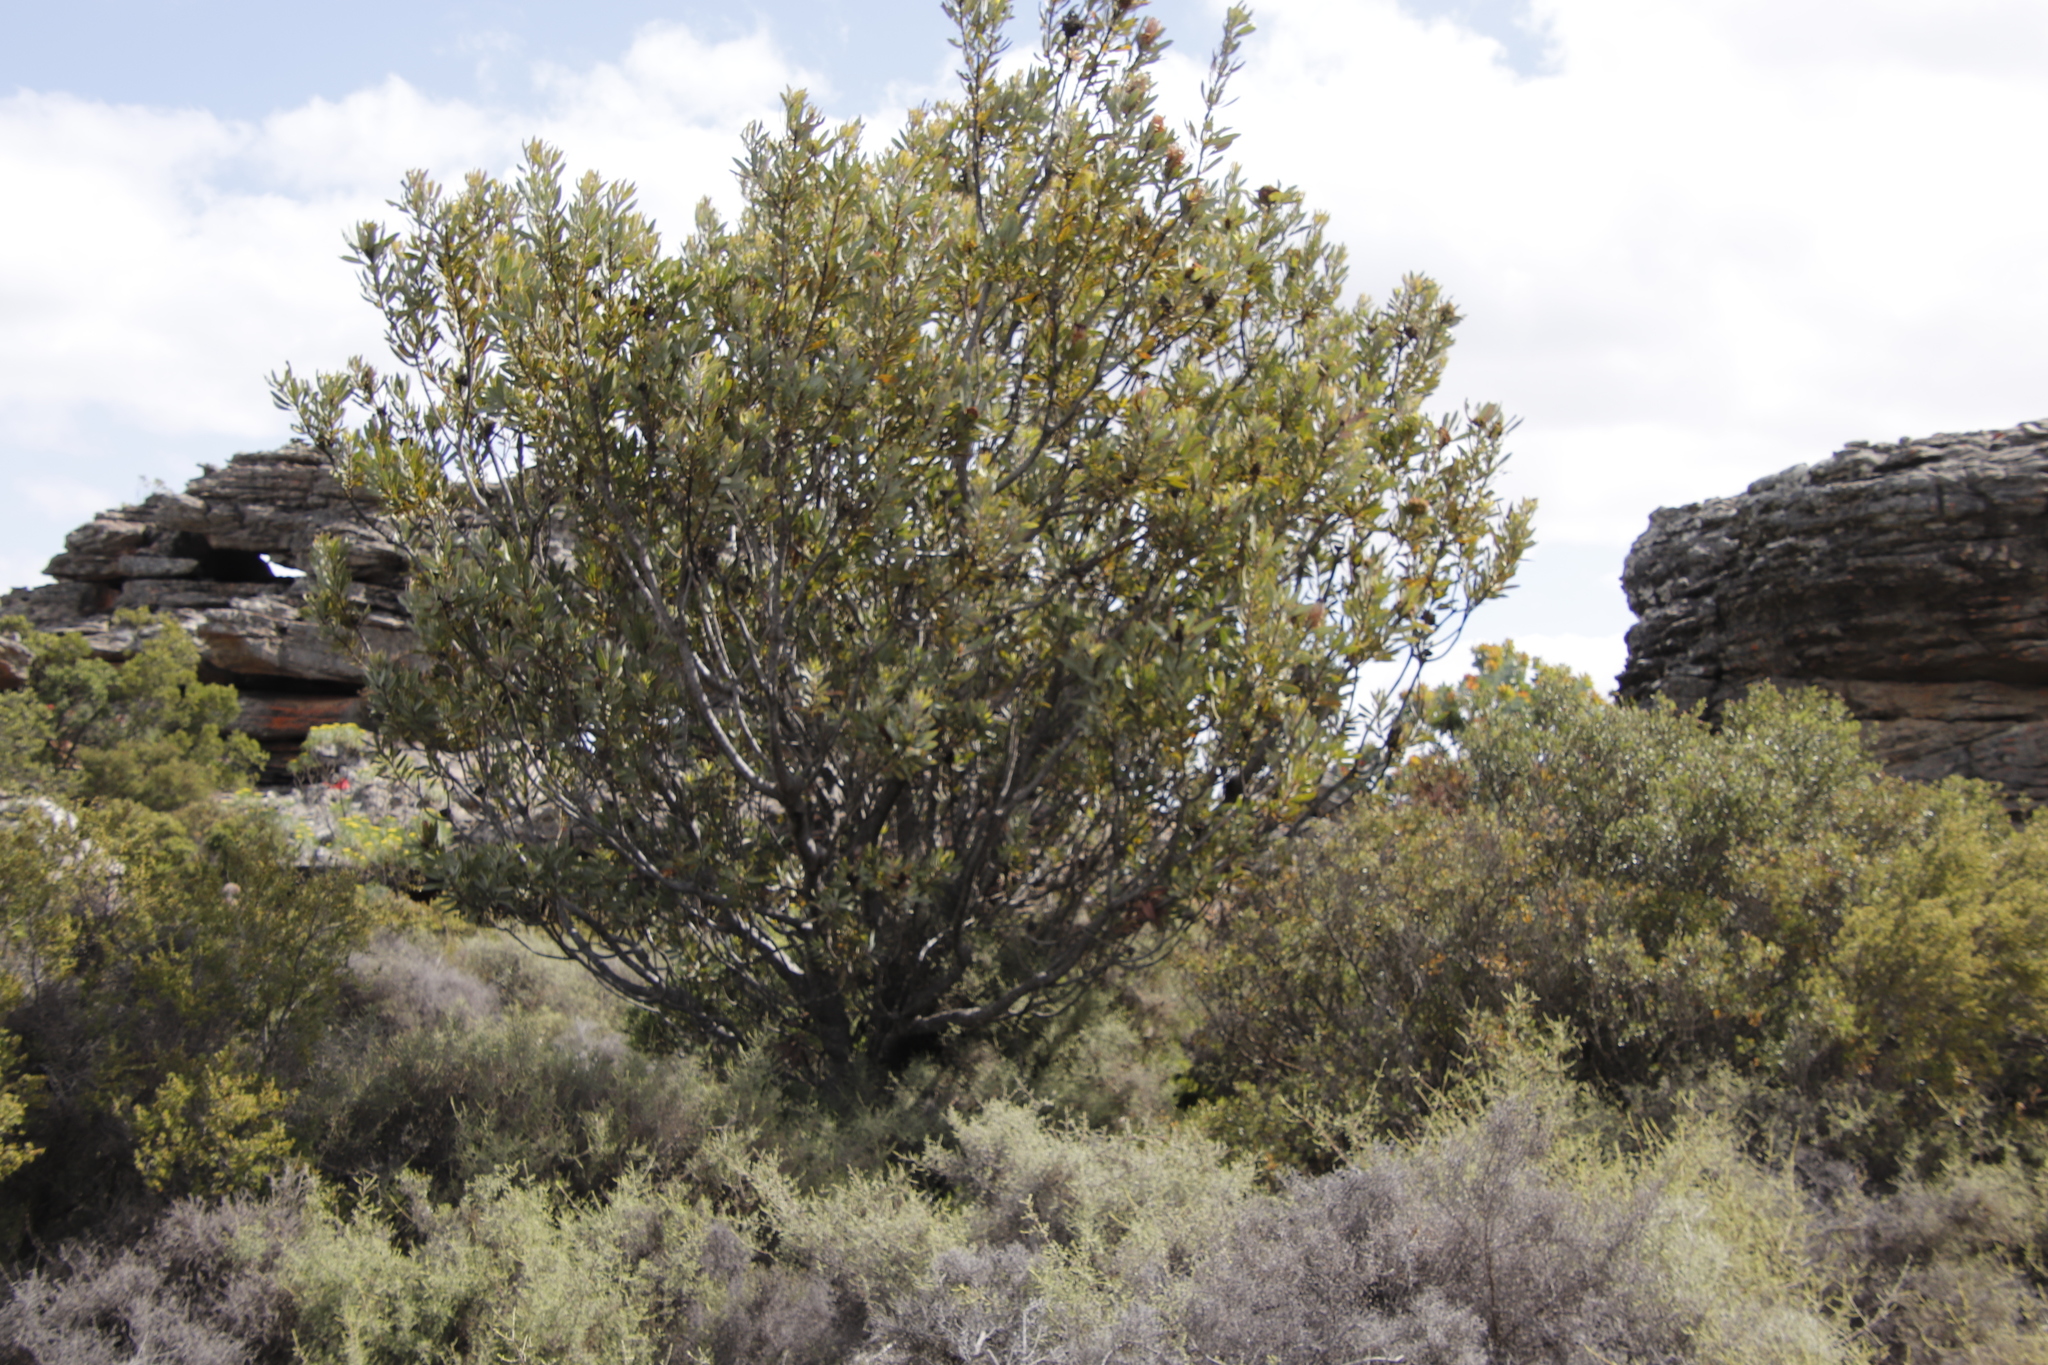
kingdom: Plantae
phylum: Tracheophyta
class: Magnoliopsida
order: Proteales
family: Proteaceae
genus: Protea
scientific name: Protea laurifolia
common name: Grey-leaf sugarbsh
